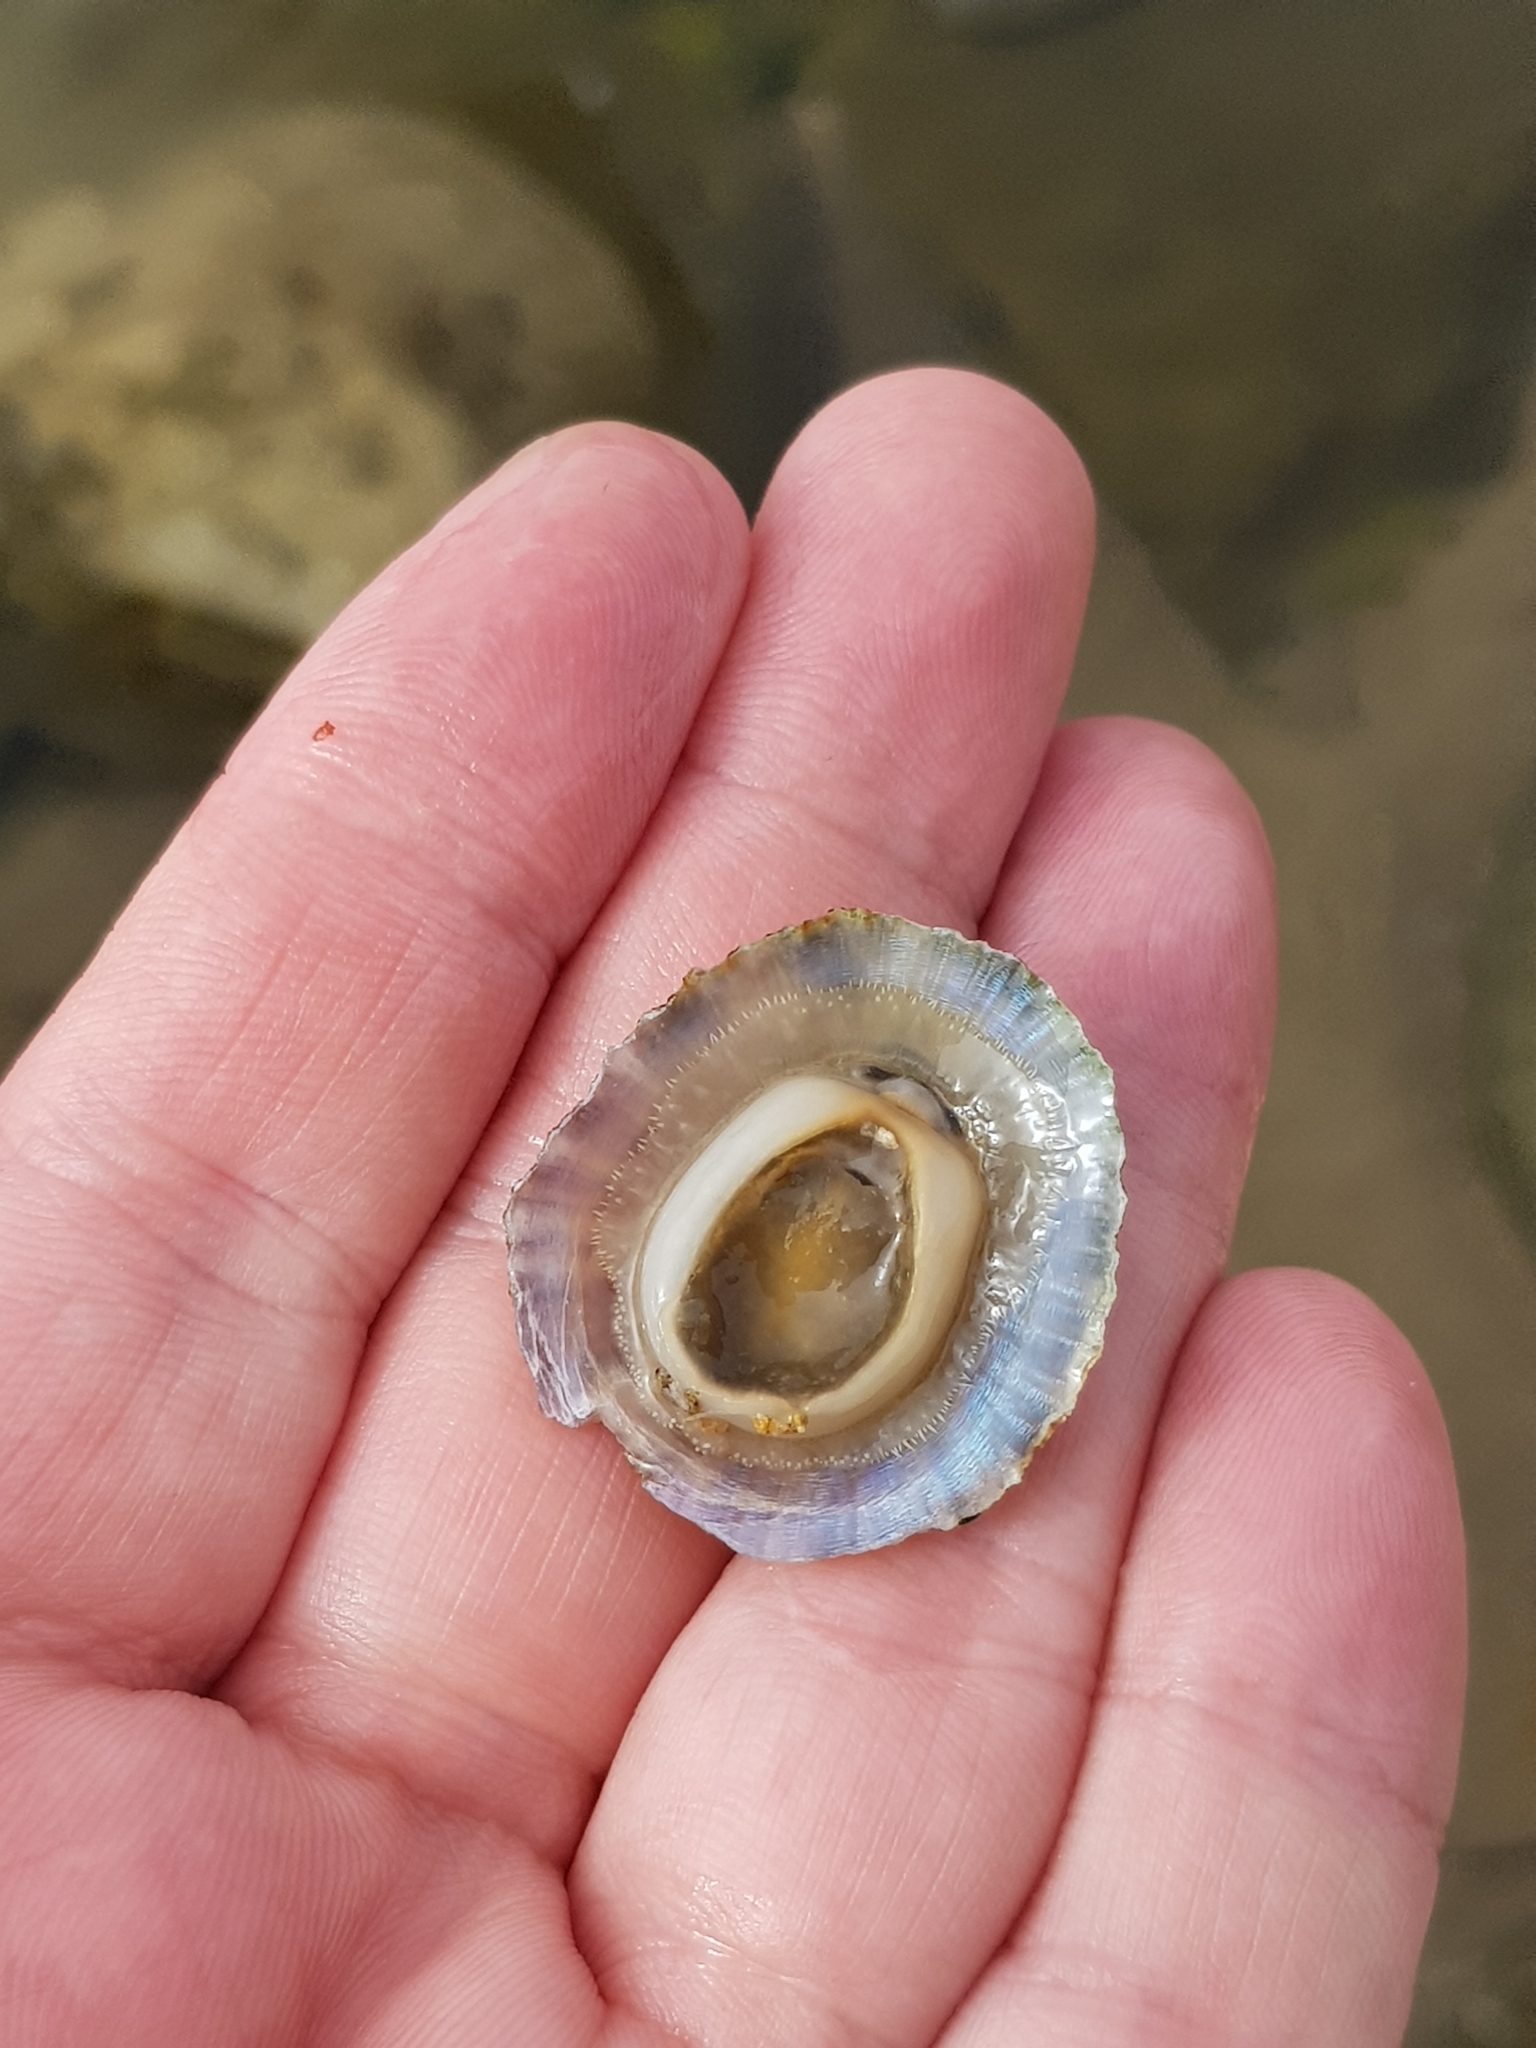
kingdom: Animalia
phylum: Mollusca
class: Gastropoda
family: Patellidae
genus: Patella
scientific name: Patella caerulea
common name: Mediterranean limpet
